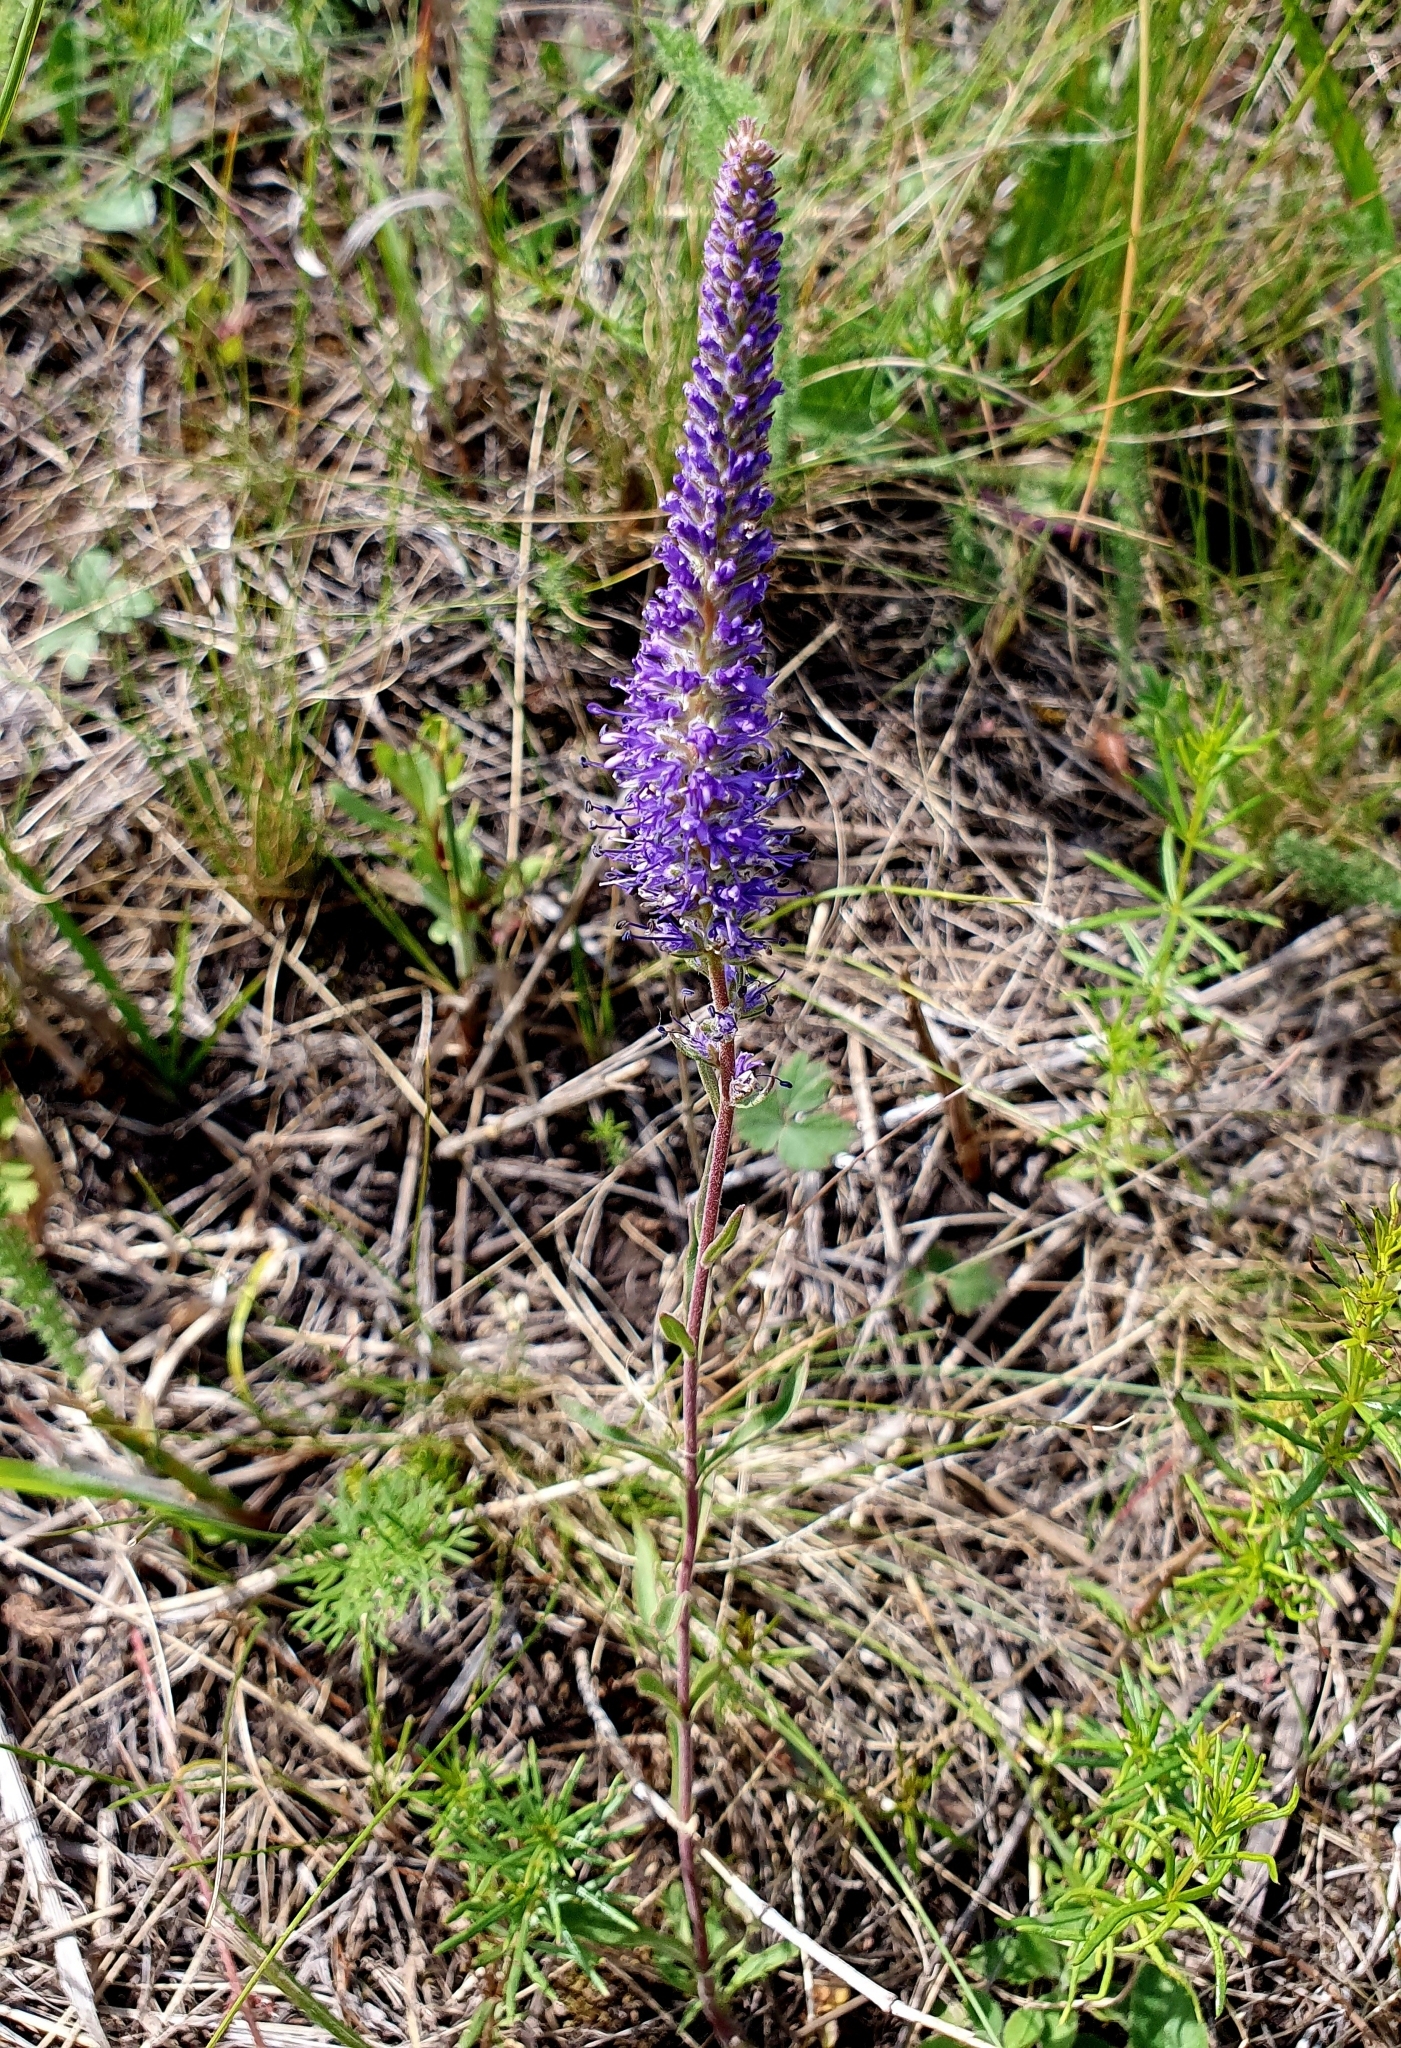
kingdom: Plantae
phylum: Tracheophyta
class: Magnoliopsida
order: Lamiales
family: Plantaginaceae
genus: Veronica
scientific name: Veronica spicata
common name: Spiked speedwell
